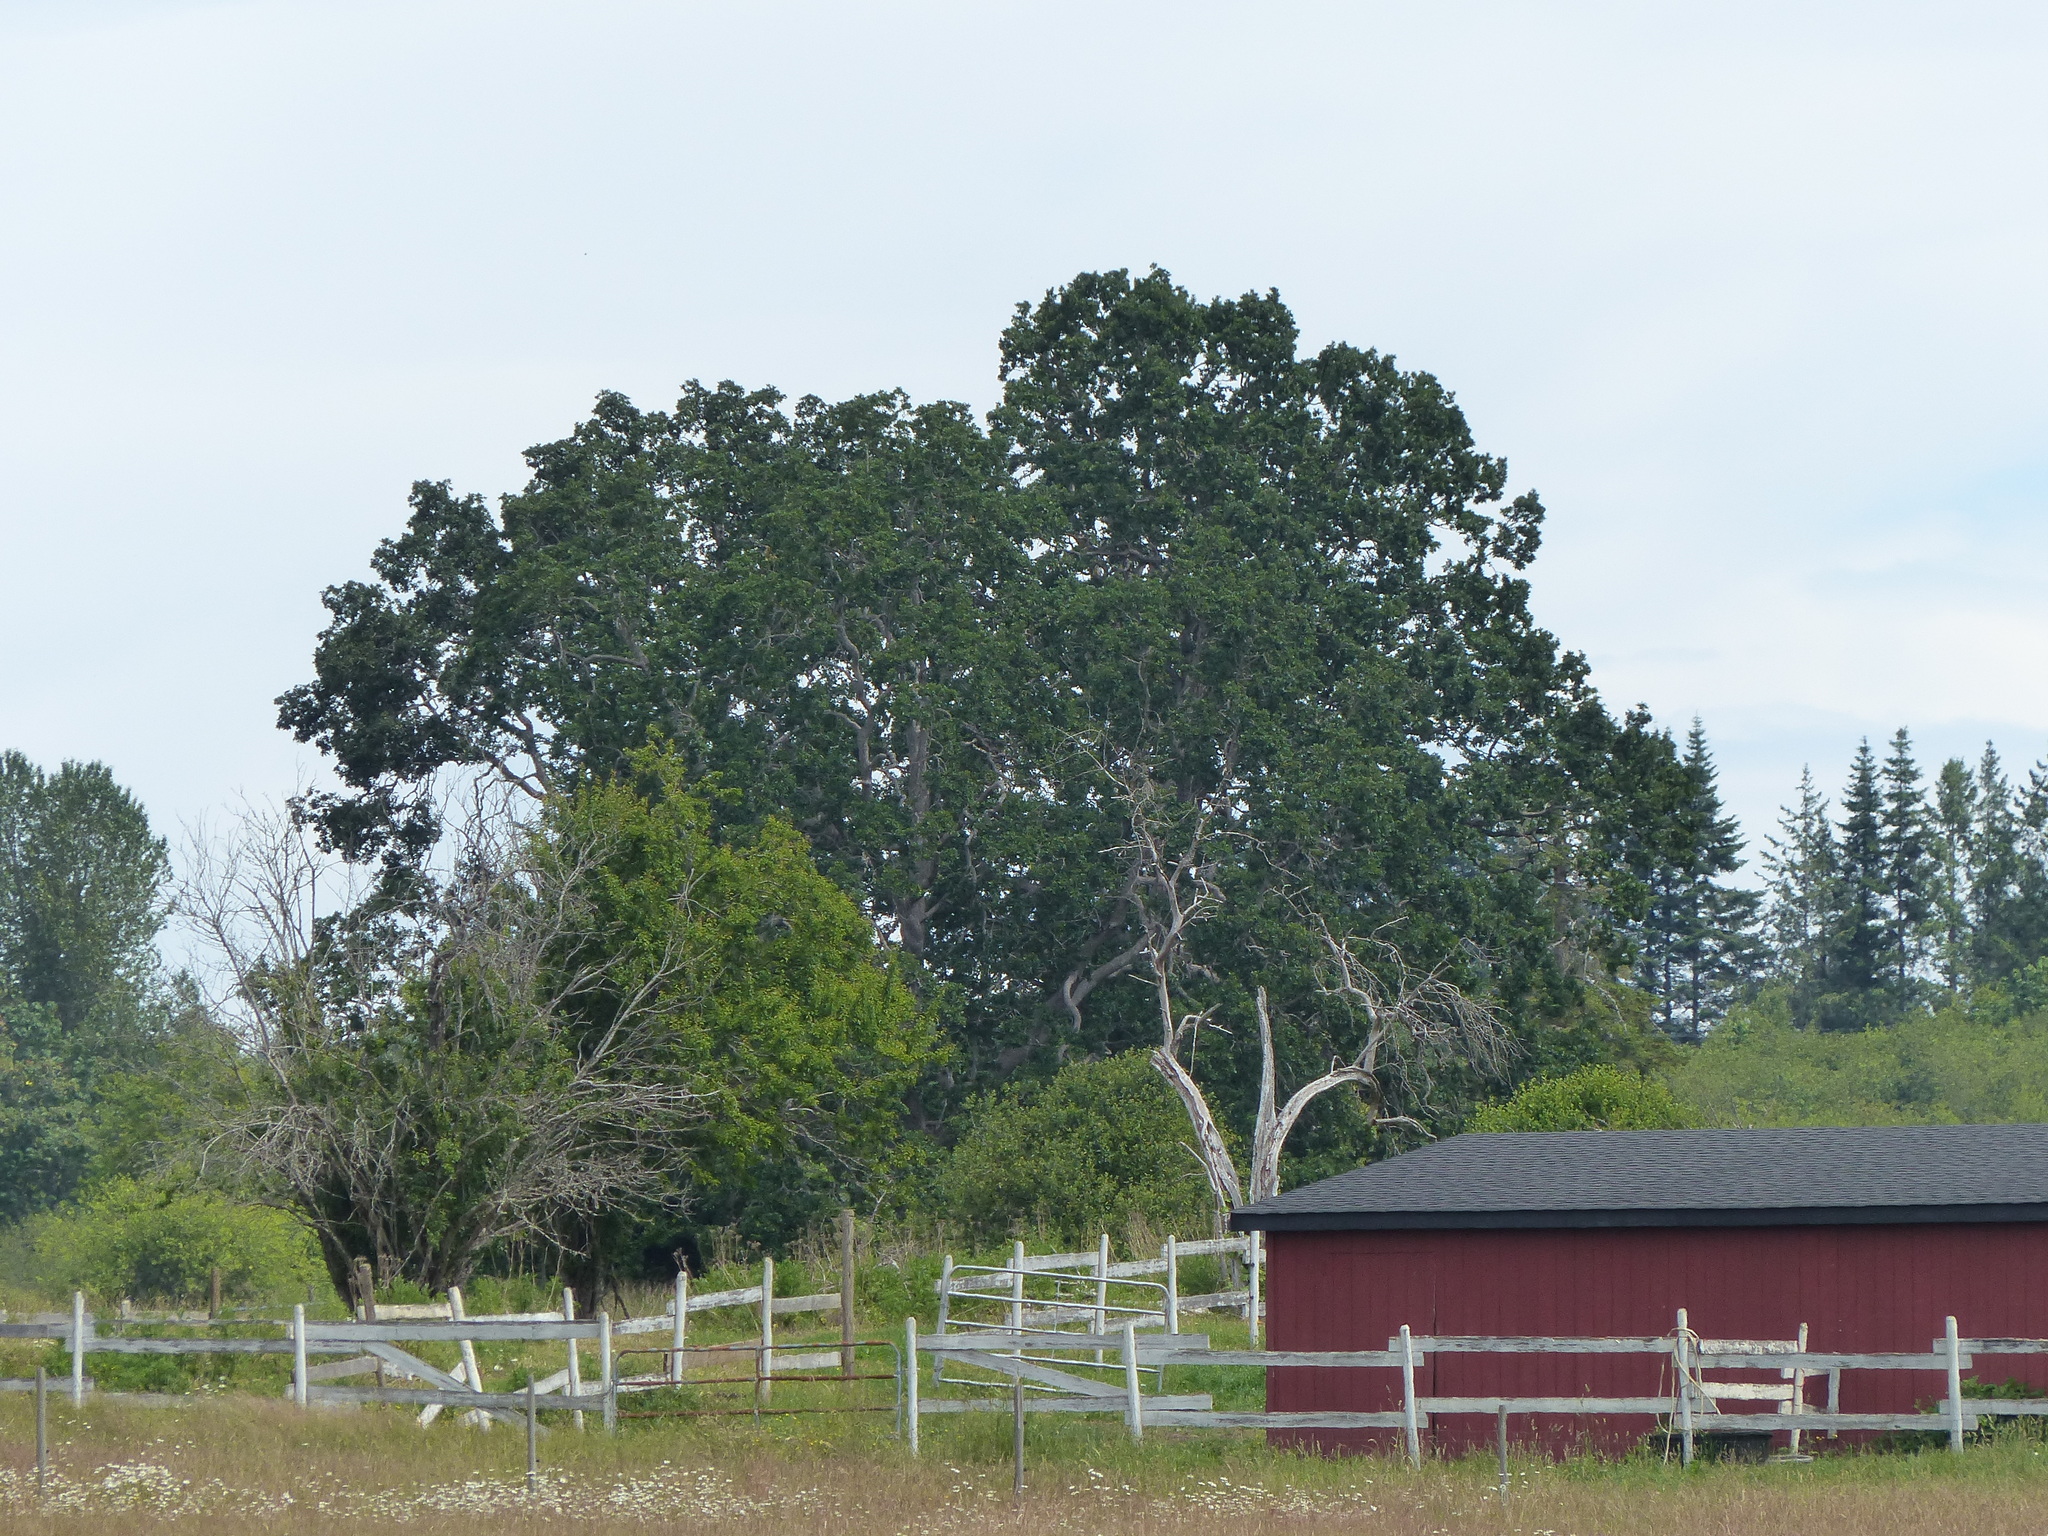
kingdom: Plantae
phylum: Tracheophyta
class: Magnoliopsida
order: Fagales
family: Fagaceae
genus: Quercus
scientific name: Quercus garryana
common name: Garry oak
